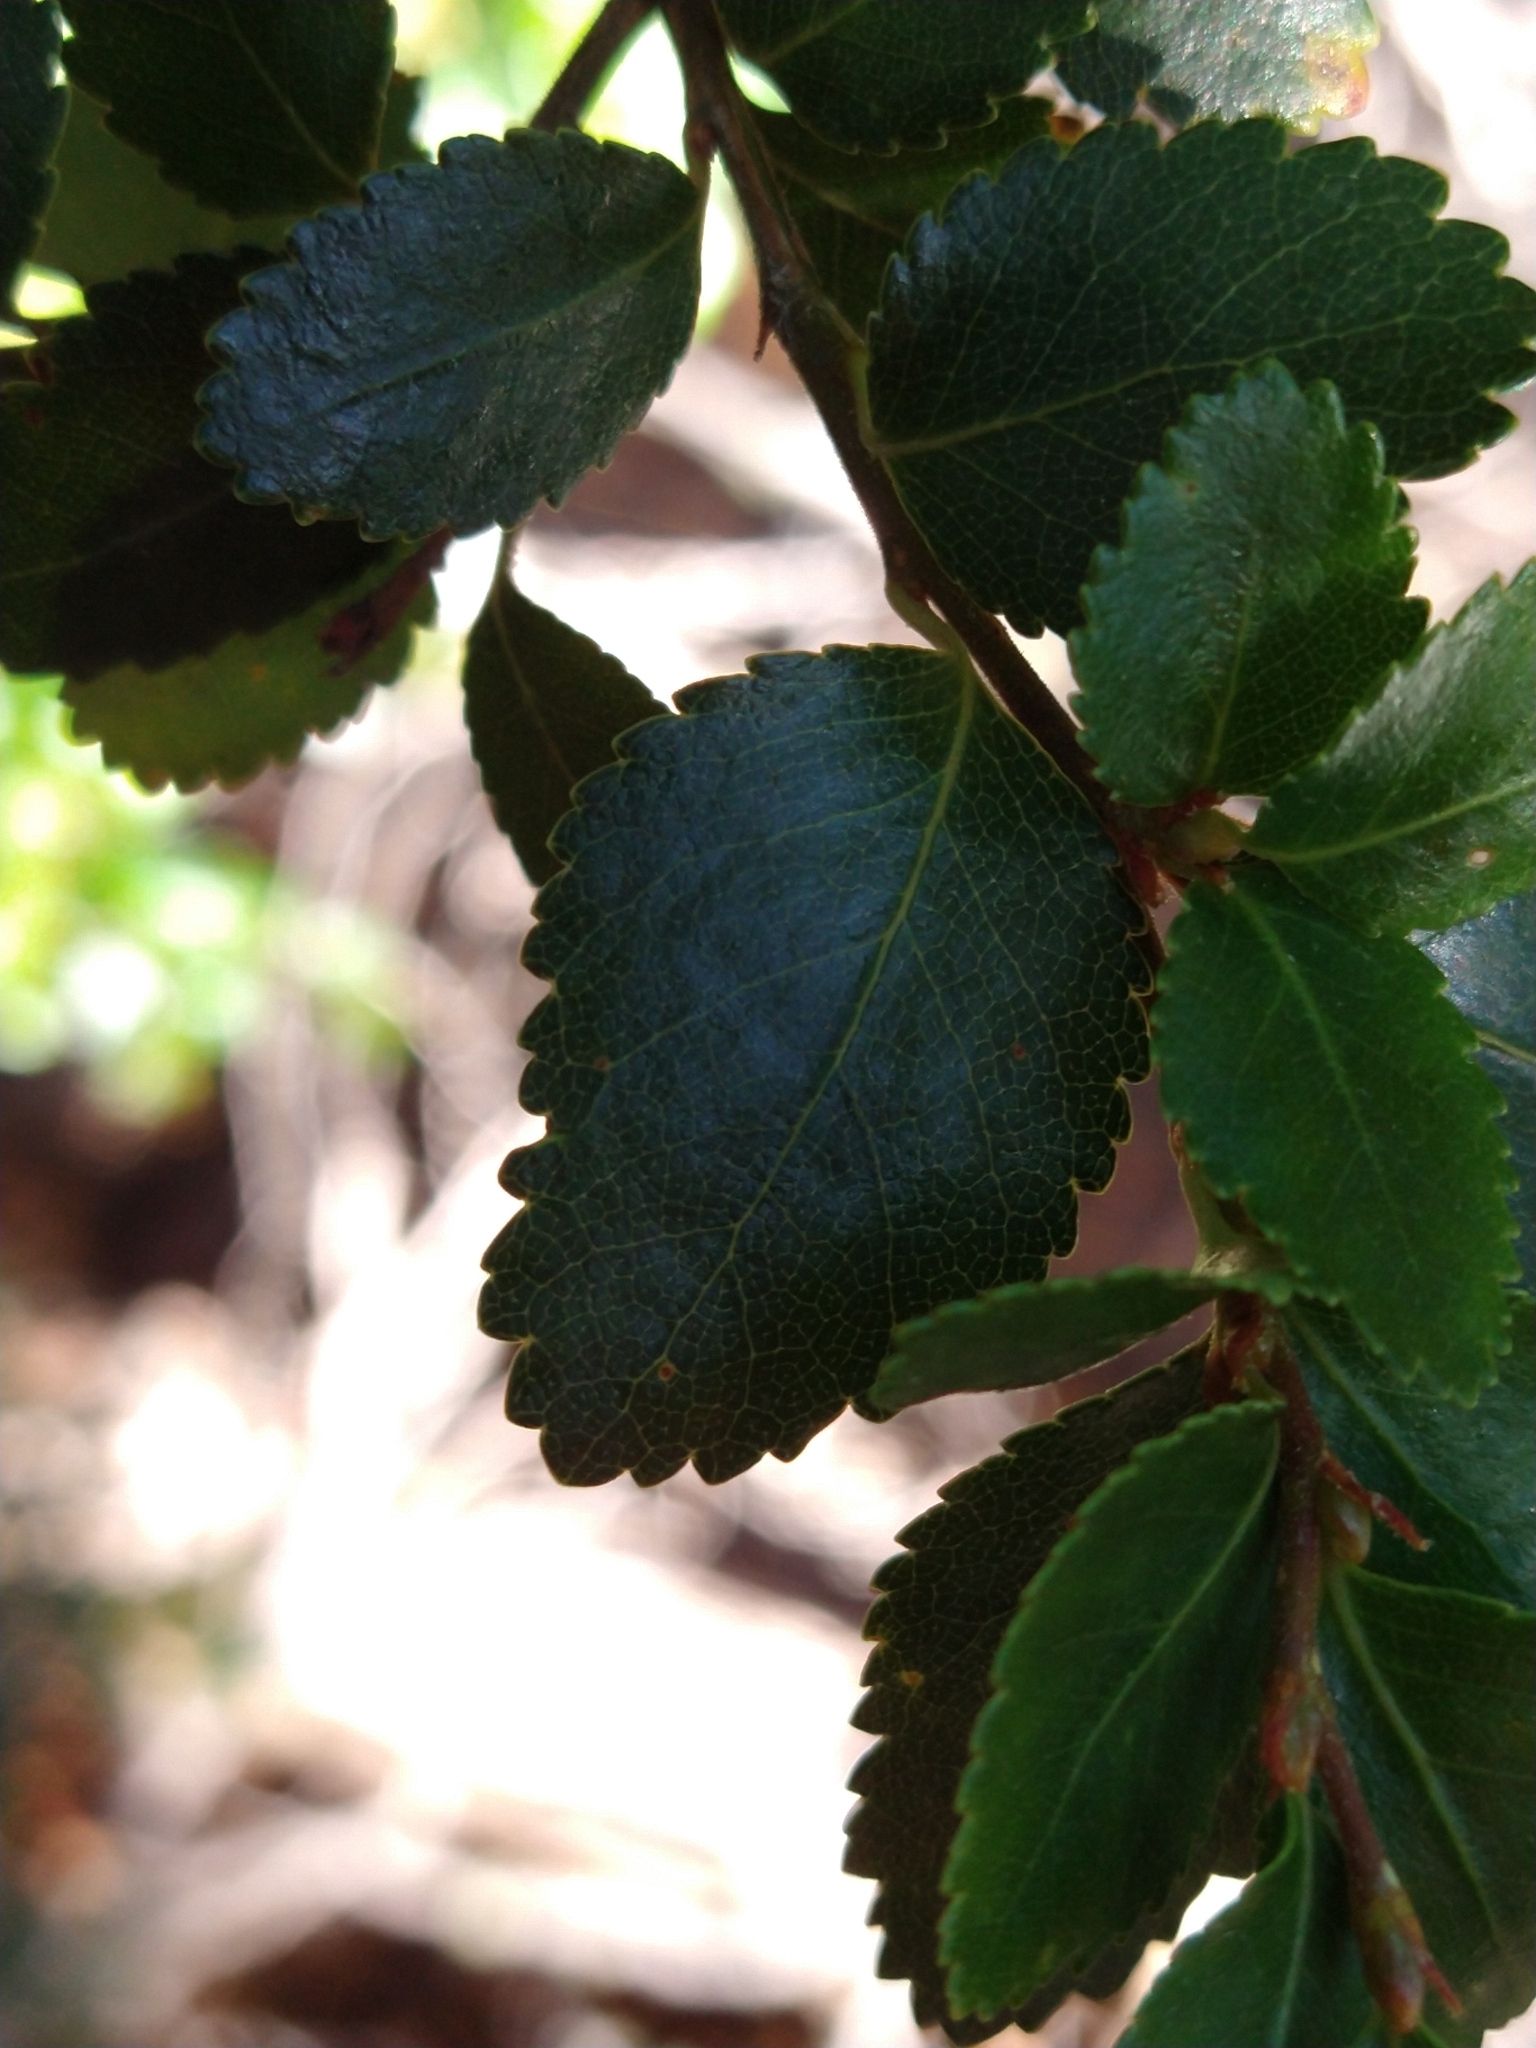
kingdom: Plantae
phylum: Tracheophyta
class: Magnoliopsida
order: Fagales
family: Nothofagaceae
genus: Nothofagus
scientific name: Nothofagus betuloides
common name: Magellan's beech
